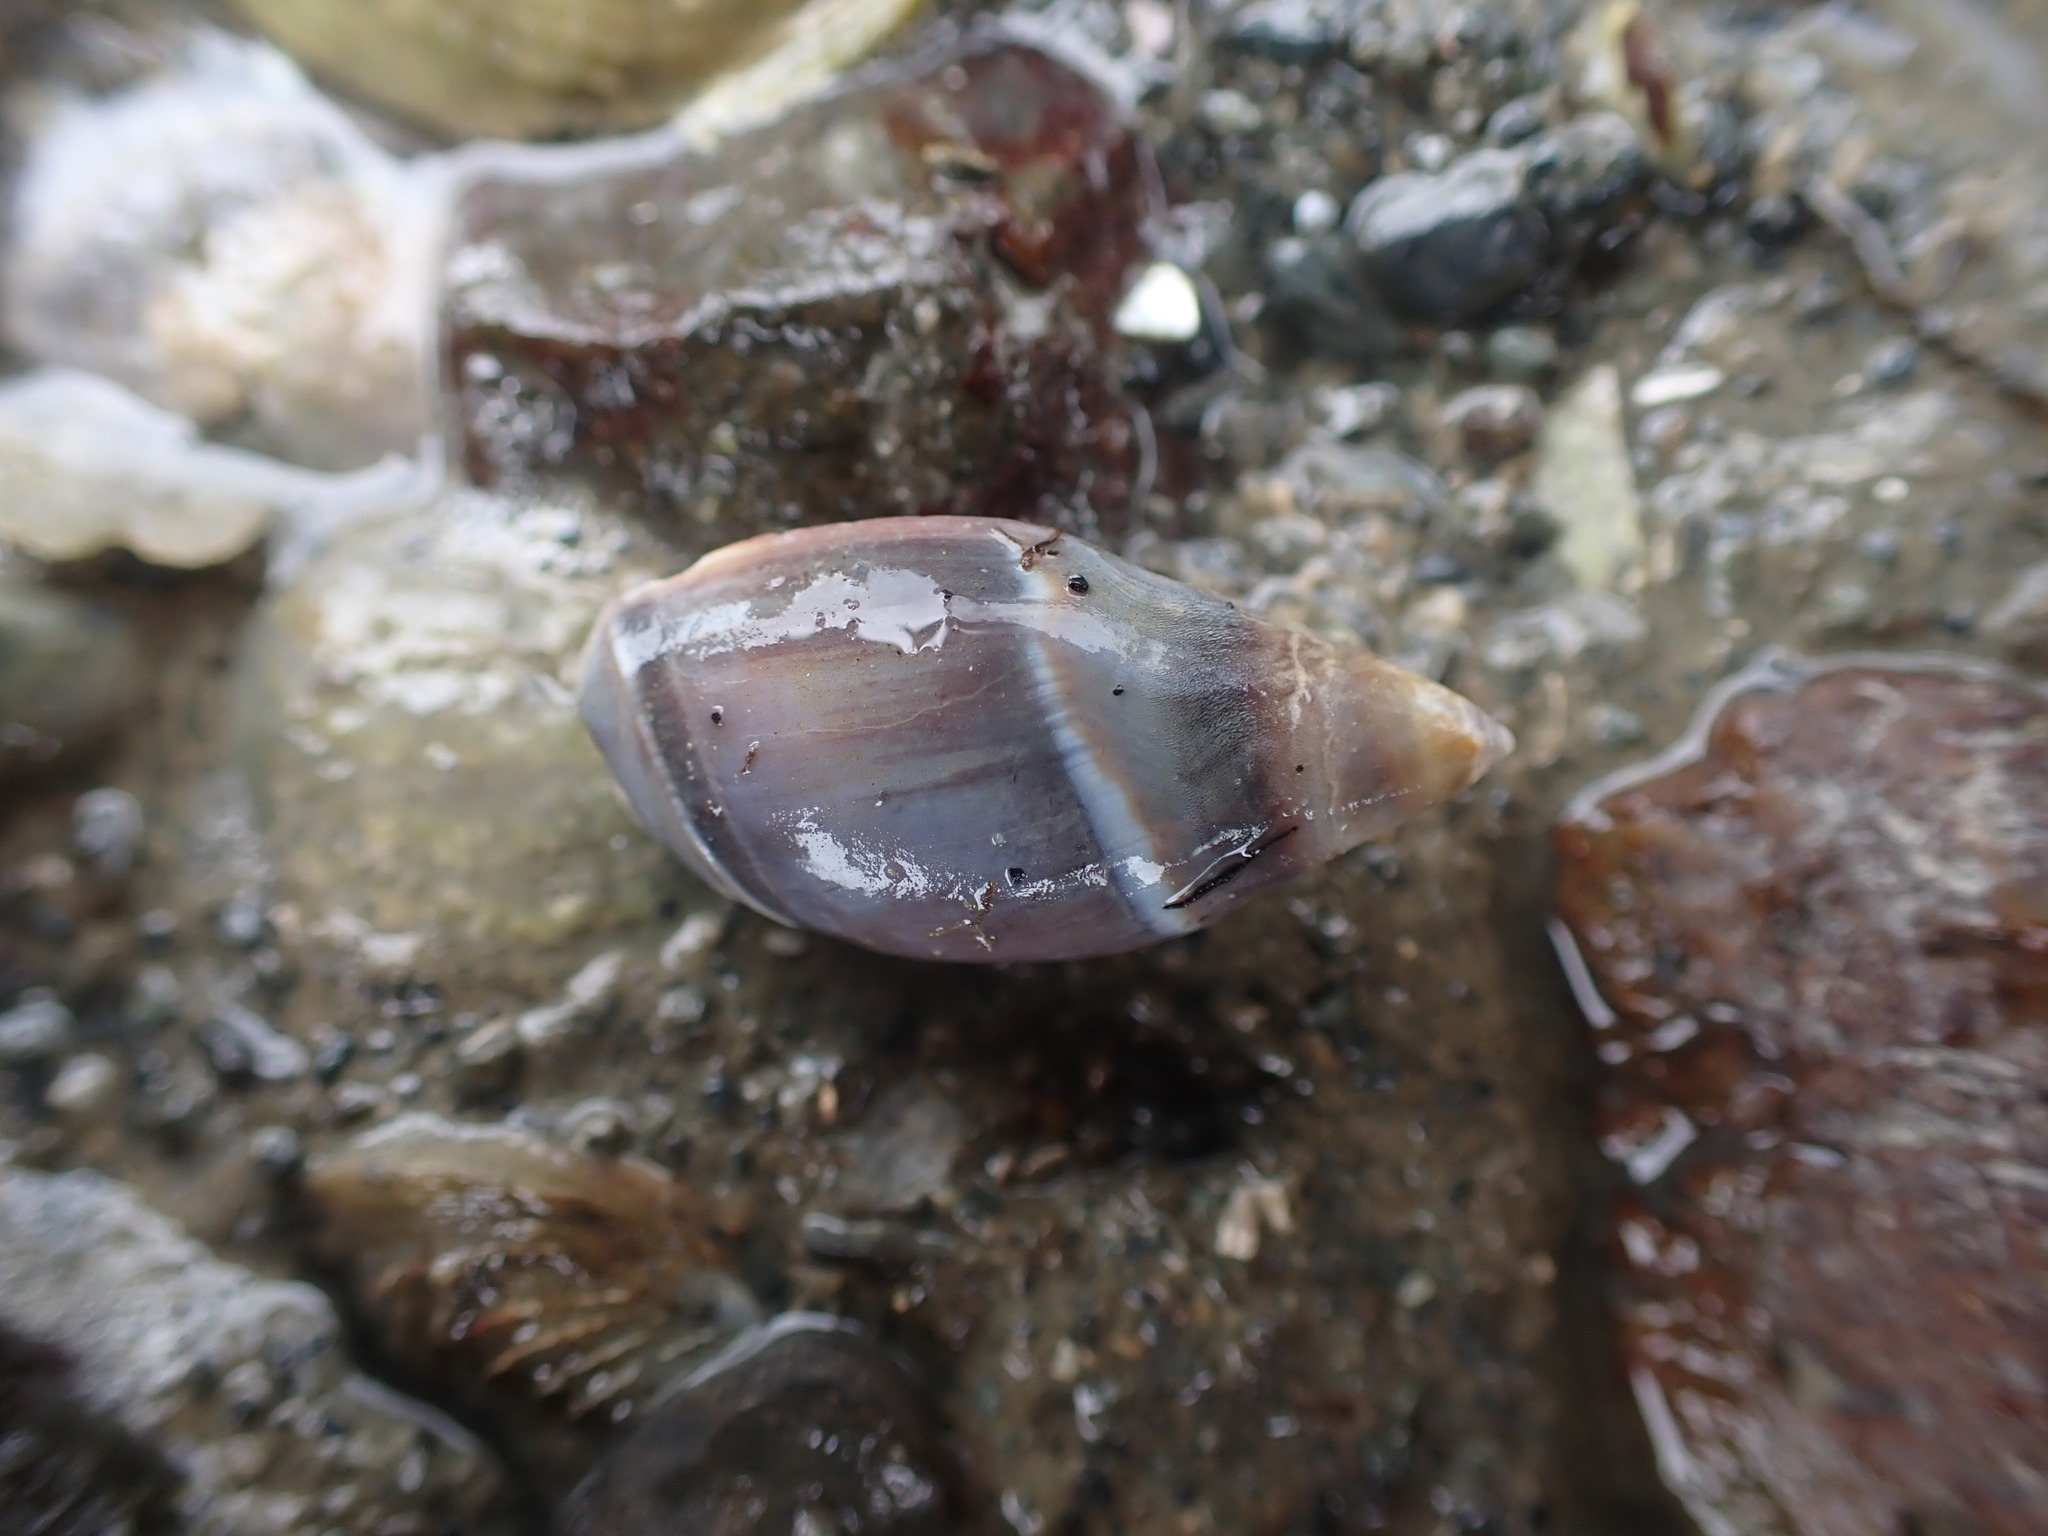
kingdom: Animalia
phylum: Mollusca
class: Gastropoda
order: Neogastropoda
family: Ancillariidae
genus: Amalda
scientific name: Amalda australis
